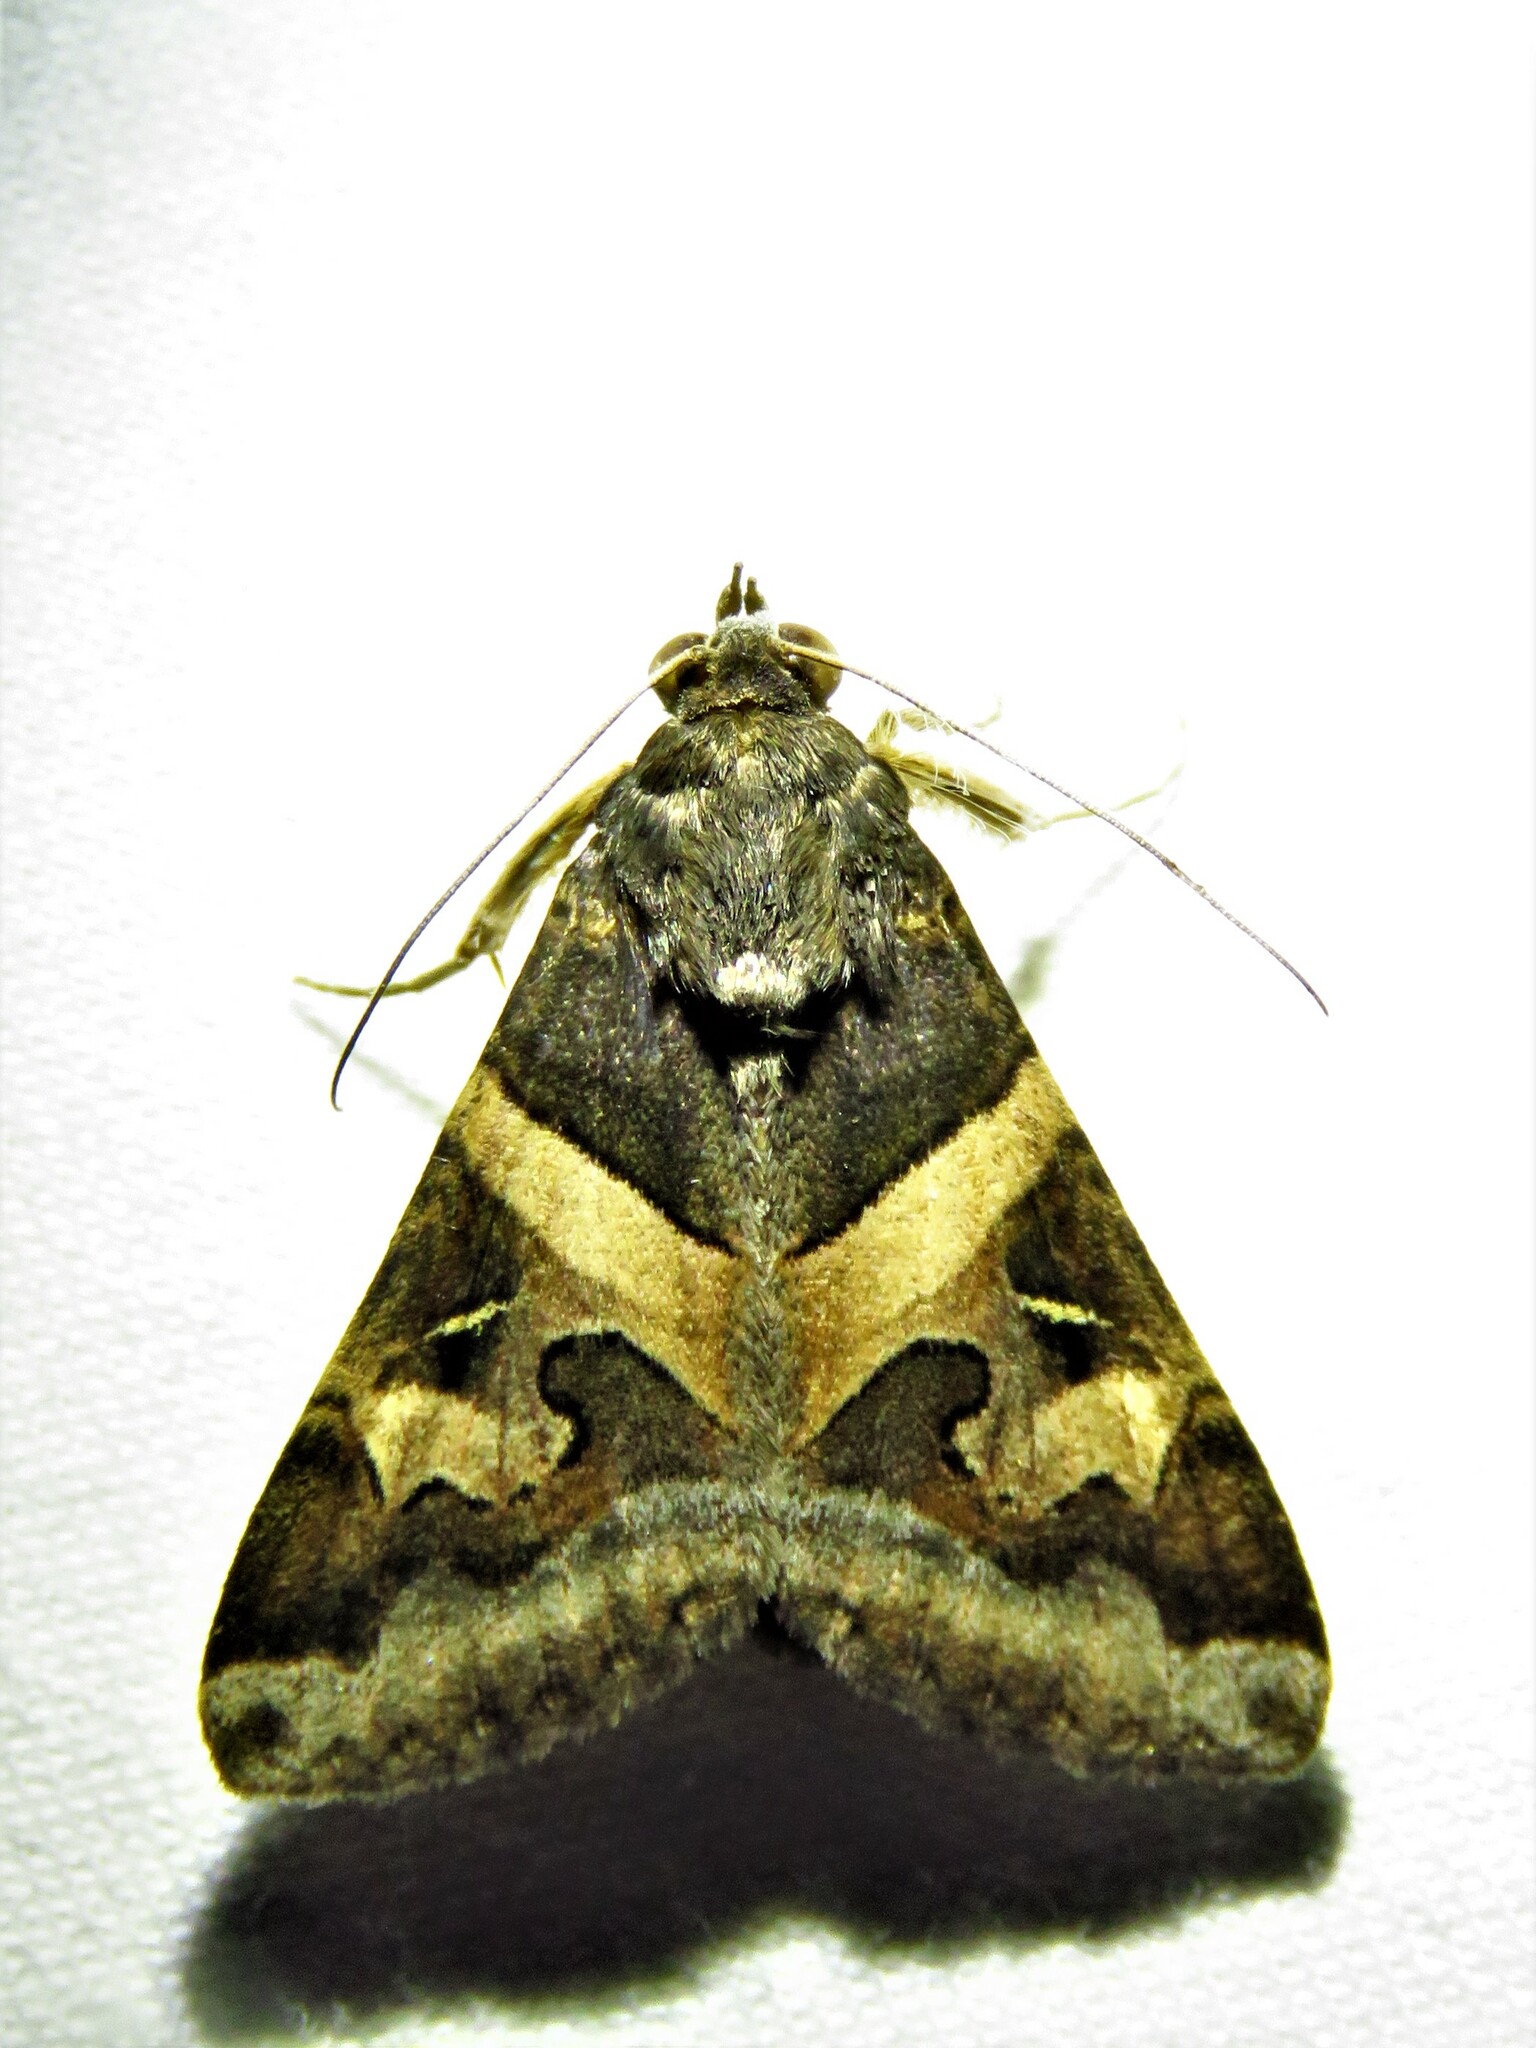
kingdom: Animalia
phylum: Arthropoda
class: Insecta
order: Lepidoptera
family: Erebidae
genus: Melipotis
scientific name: Melipotis indomita
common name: Moth
